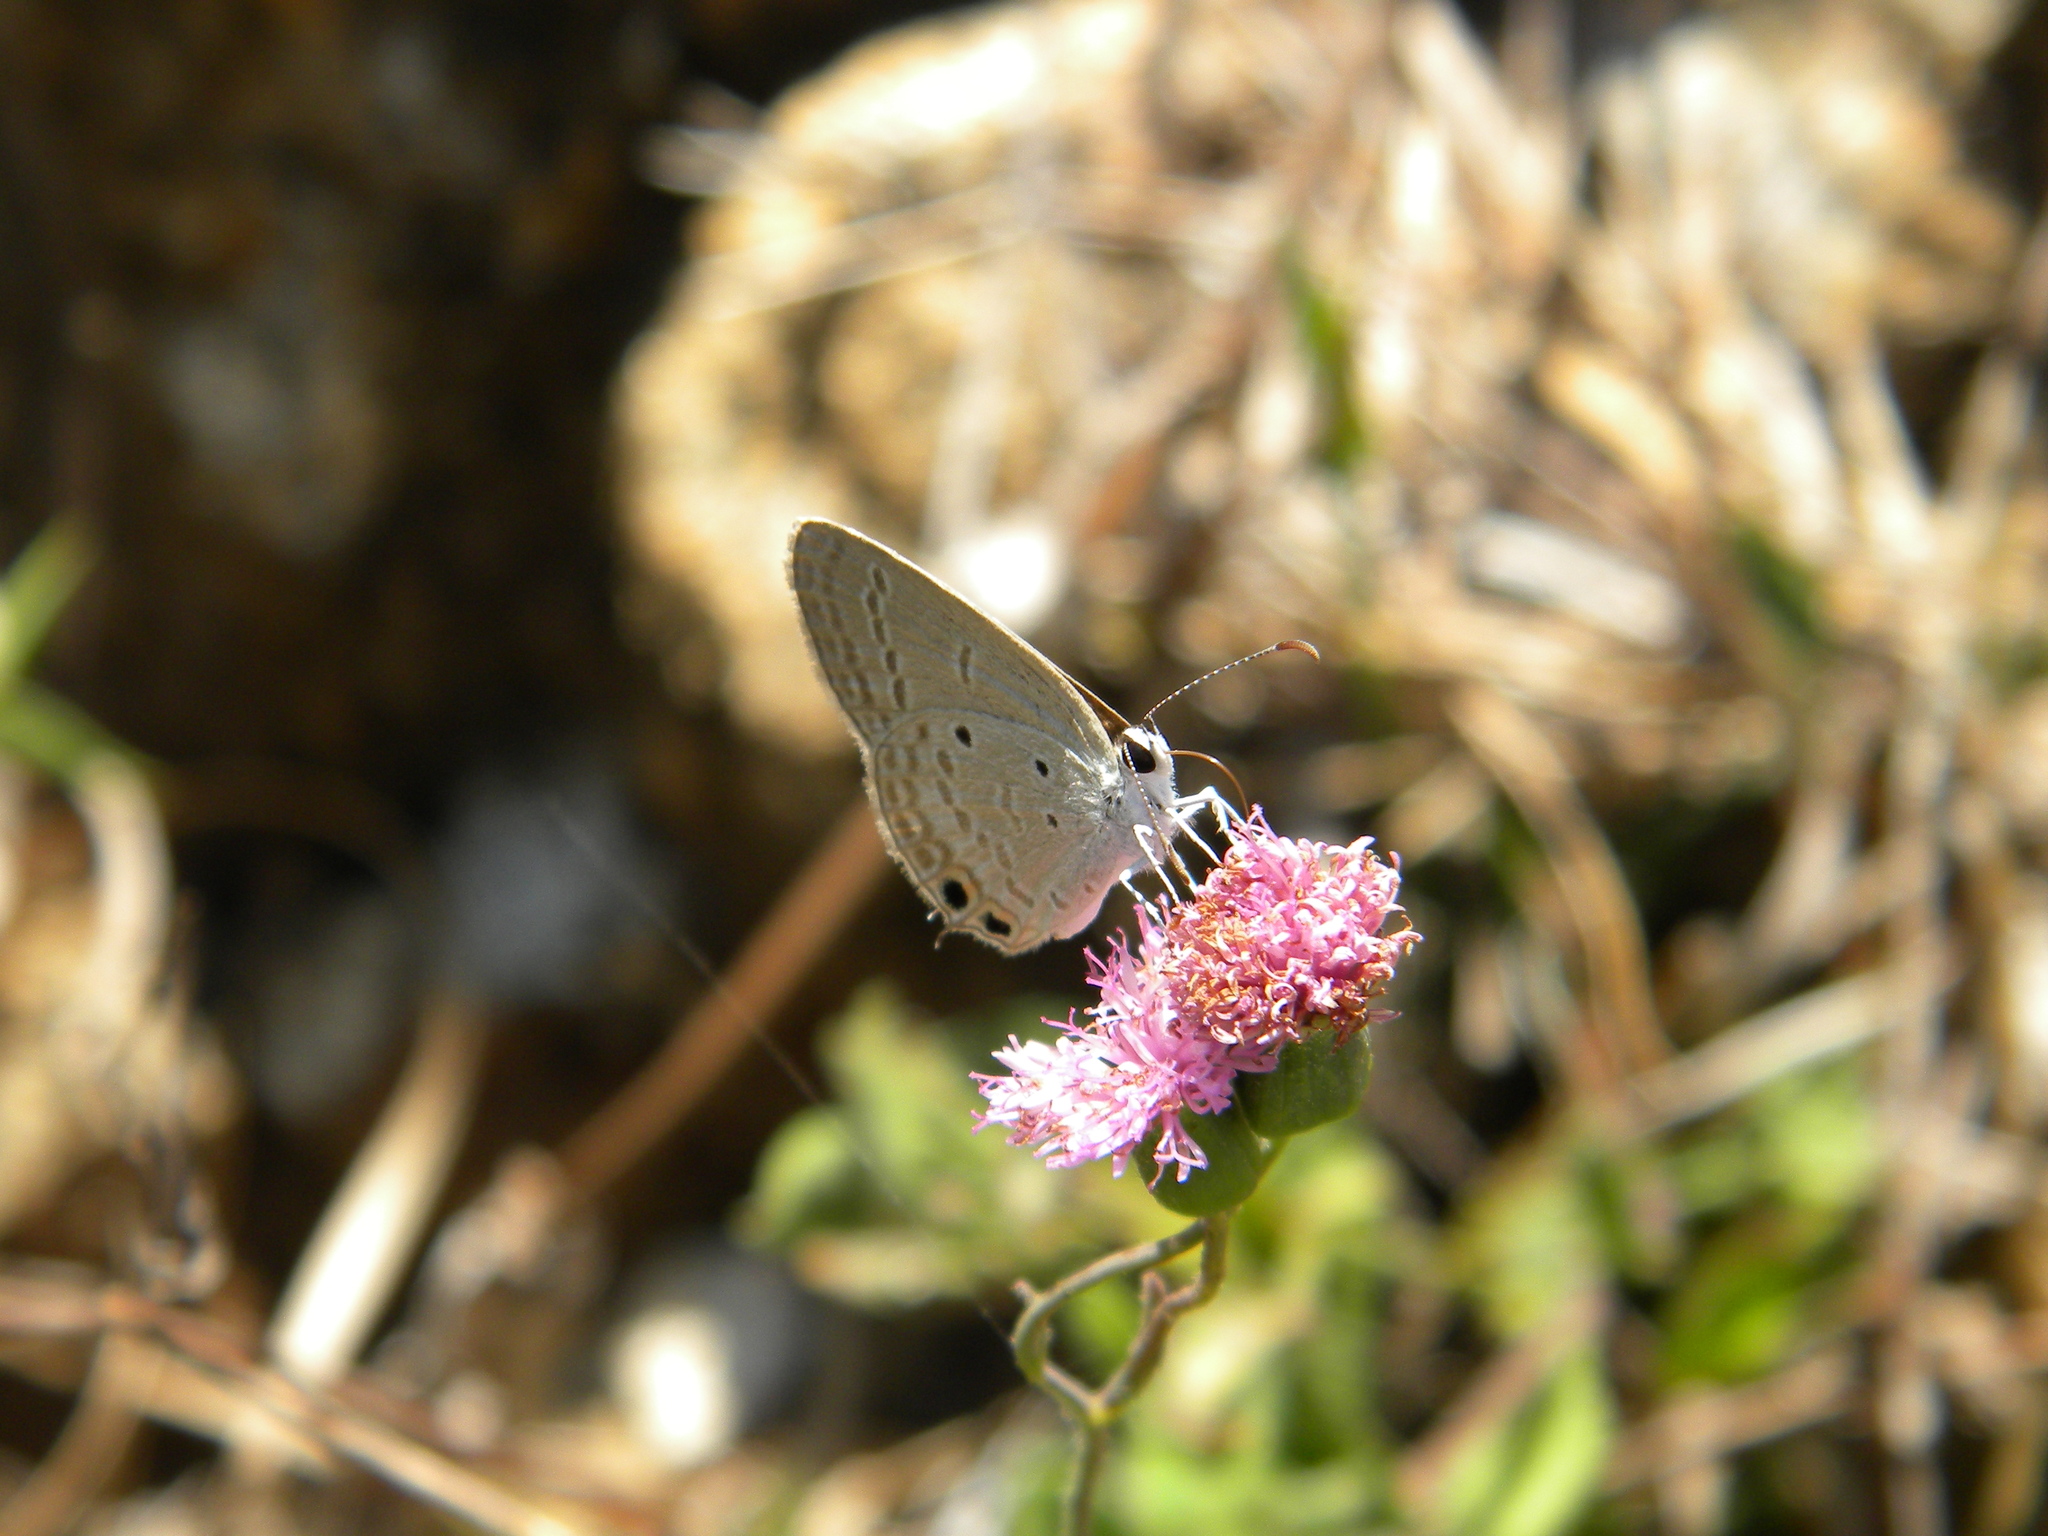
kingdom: Animalia
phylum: Arthropoda
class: Insecta
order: Lepidoptera
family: Lycaenidae
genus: Euchrysops
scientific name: Euchrysops cnejus
